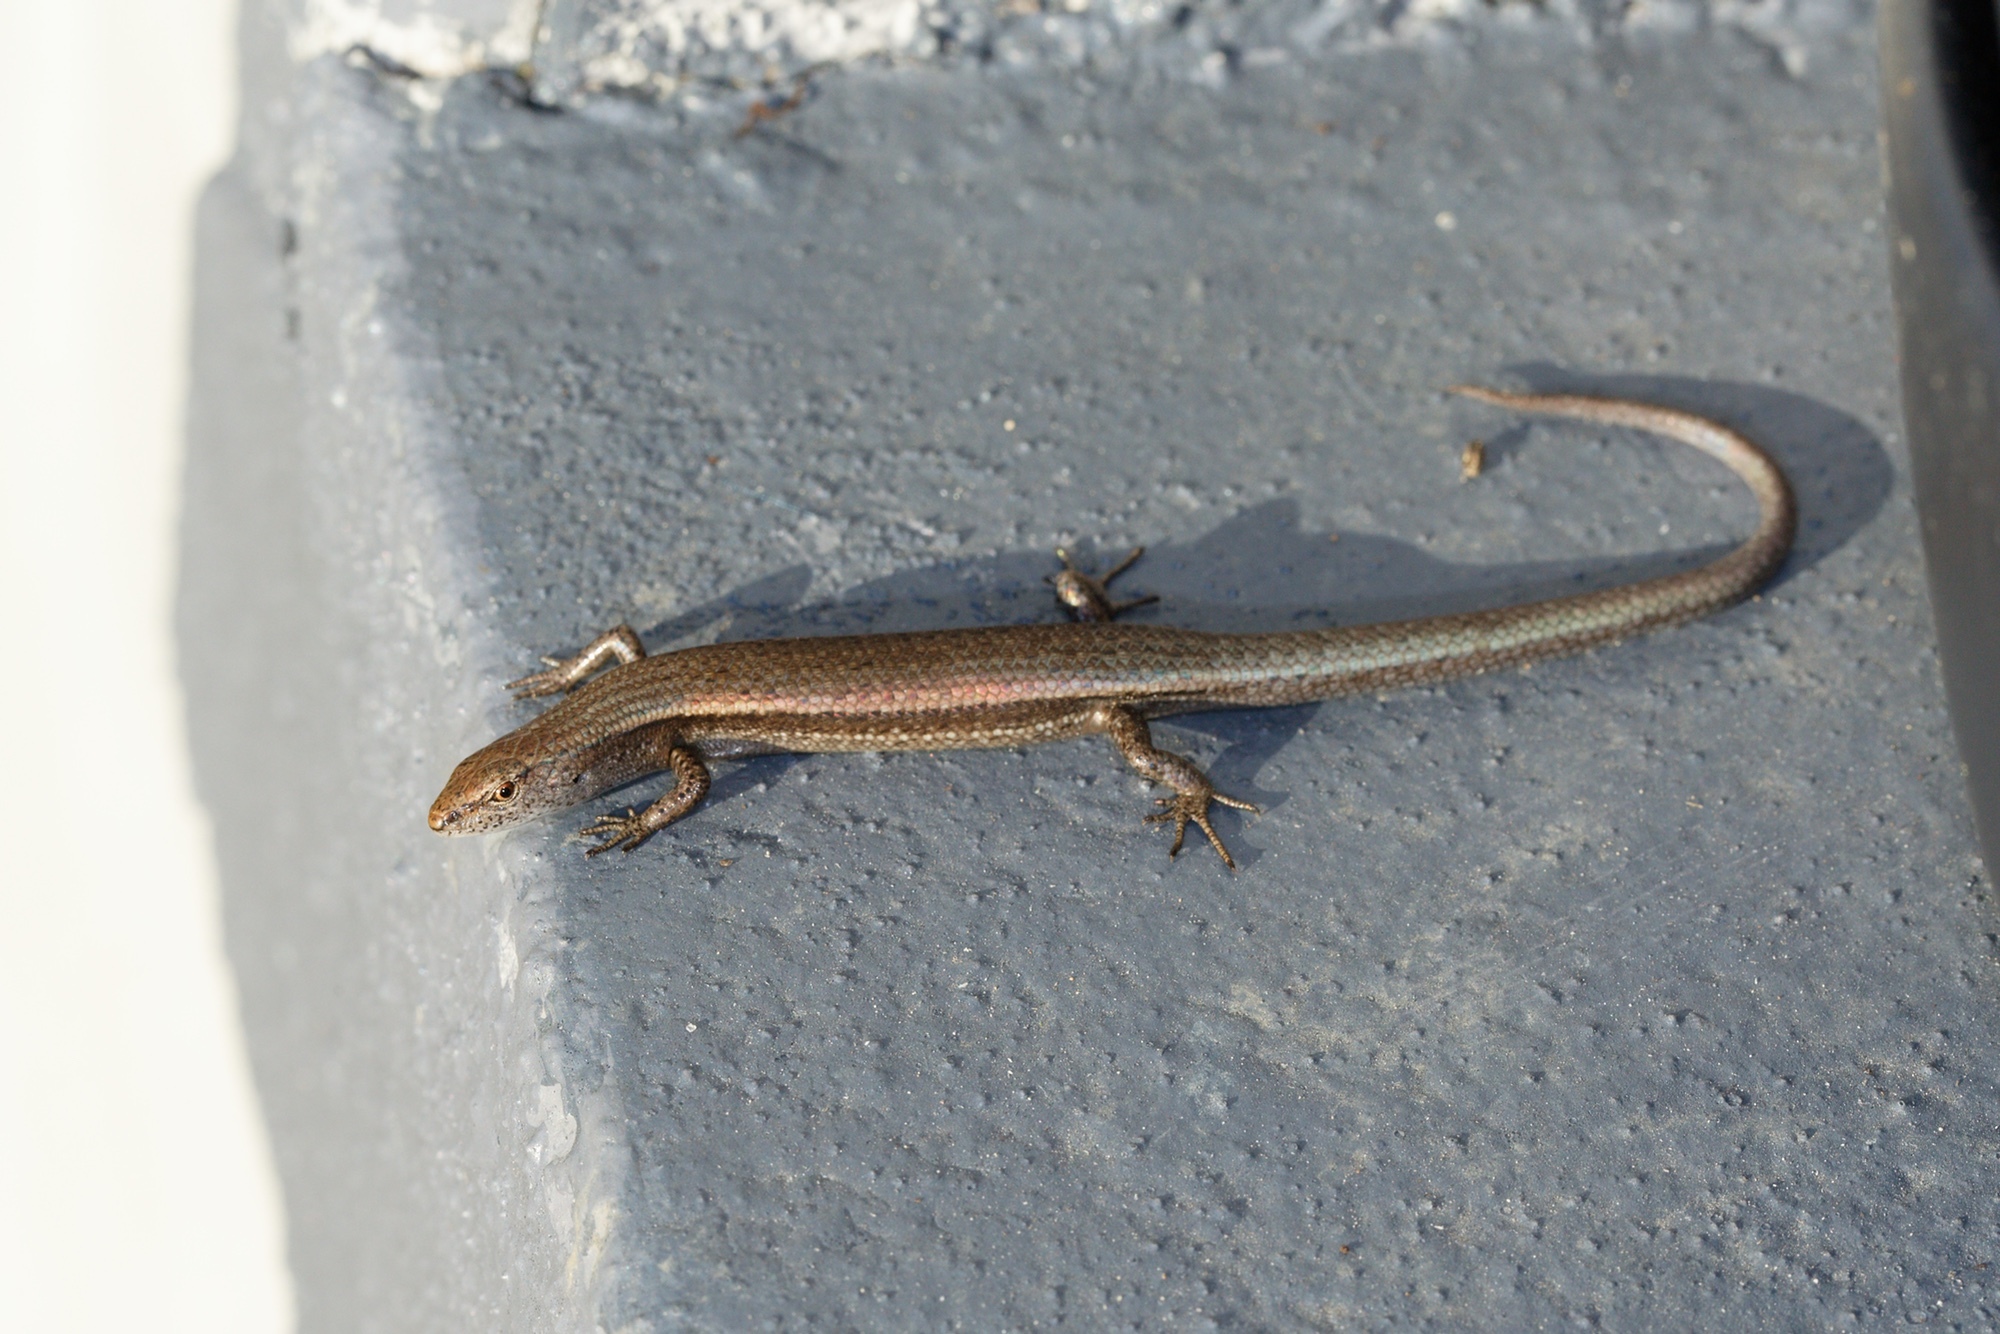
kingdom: Animalia
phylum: Chordata
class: Squamata
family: Scincidae
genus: Lampropholis
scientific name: Lampropholis delicata
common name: Plague skink
